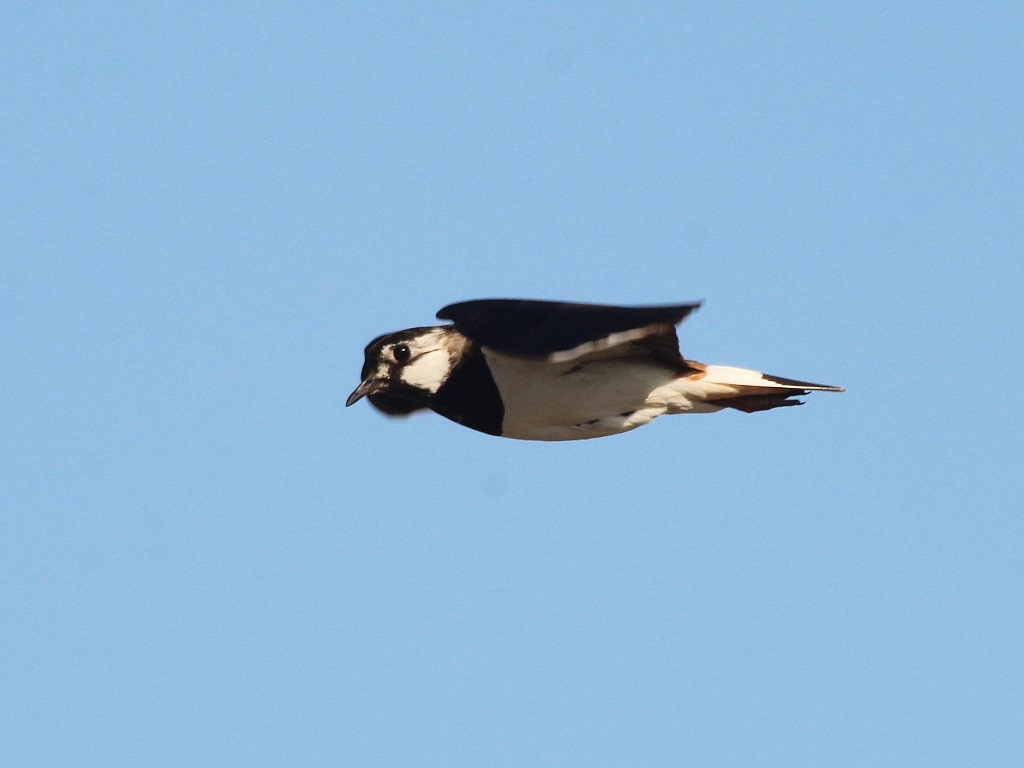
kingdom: Animalia
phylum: Chordata
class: Aves
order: Charadriiformes
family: Charadriidae
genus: Vanellus
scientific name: Vanellus vanellus
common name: Northern lapwing
